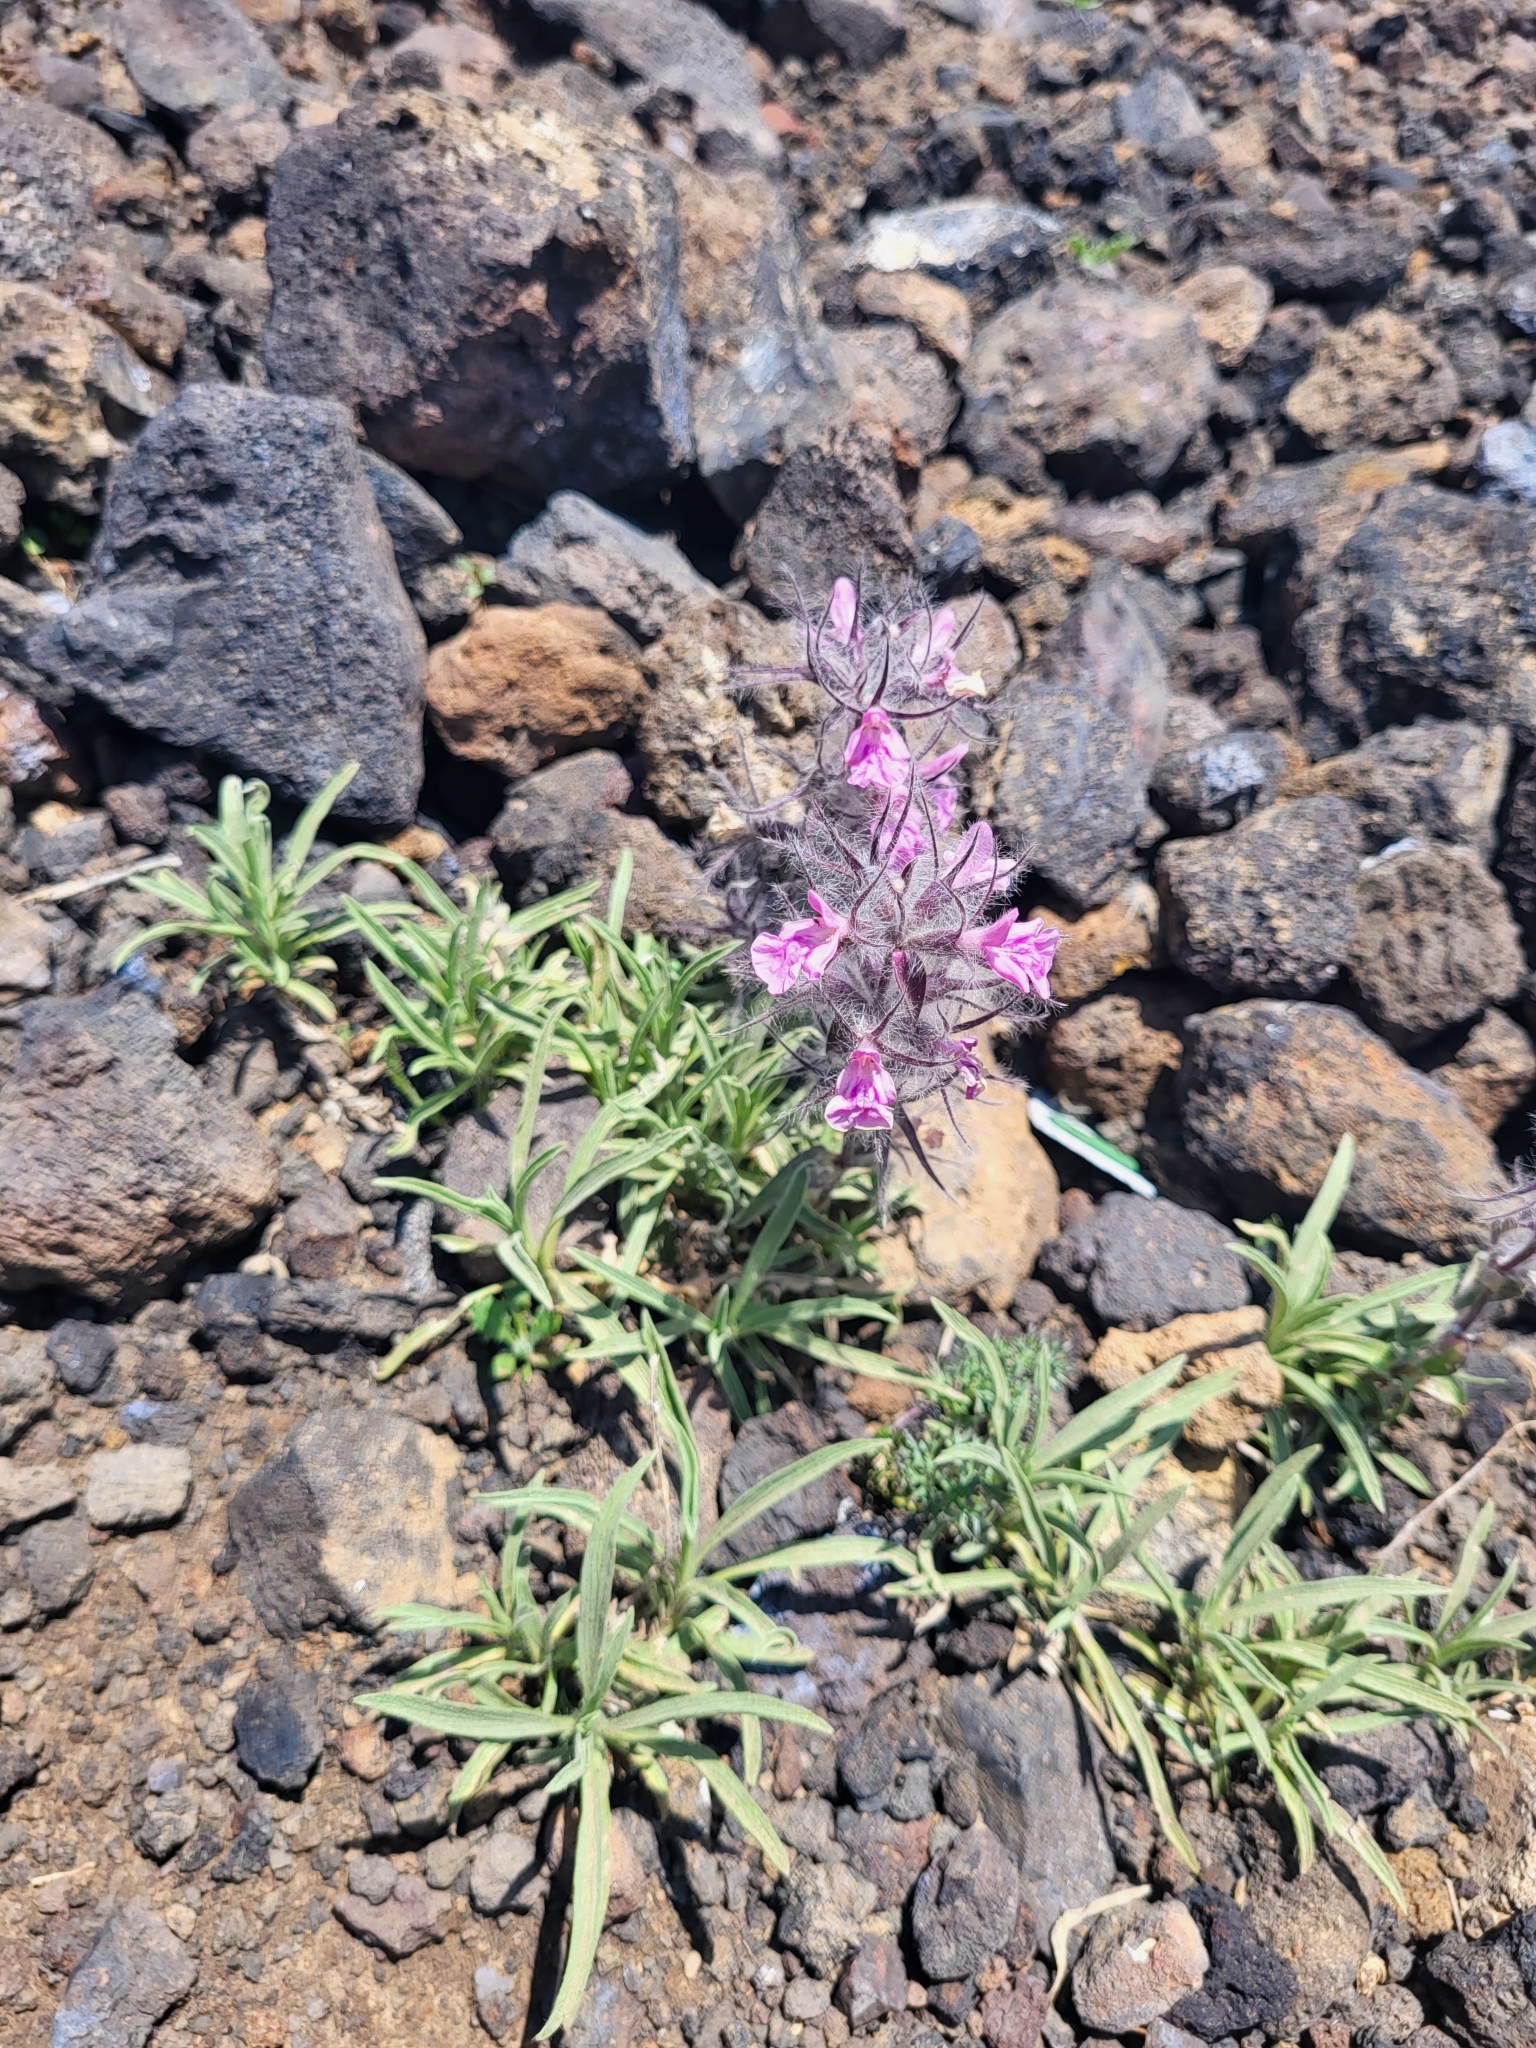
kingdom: Plantae
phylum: Tracheophyta
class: Magnoliopsida
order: Lamiales
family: Lamiaceae
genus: Stachys
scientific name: Stachys lavandulifolia
